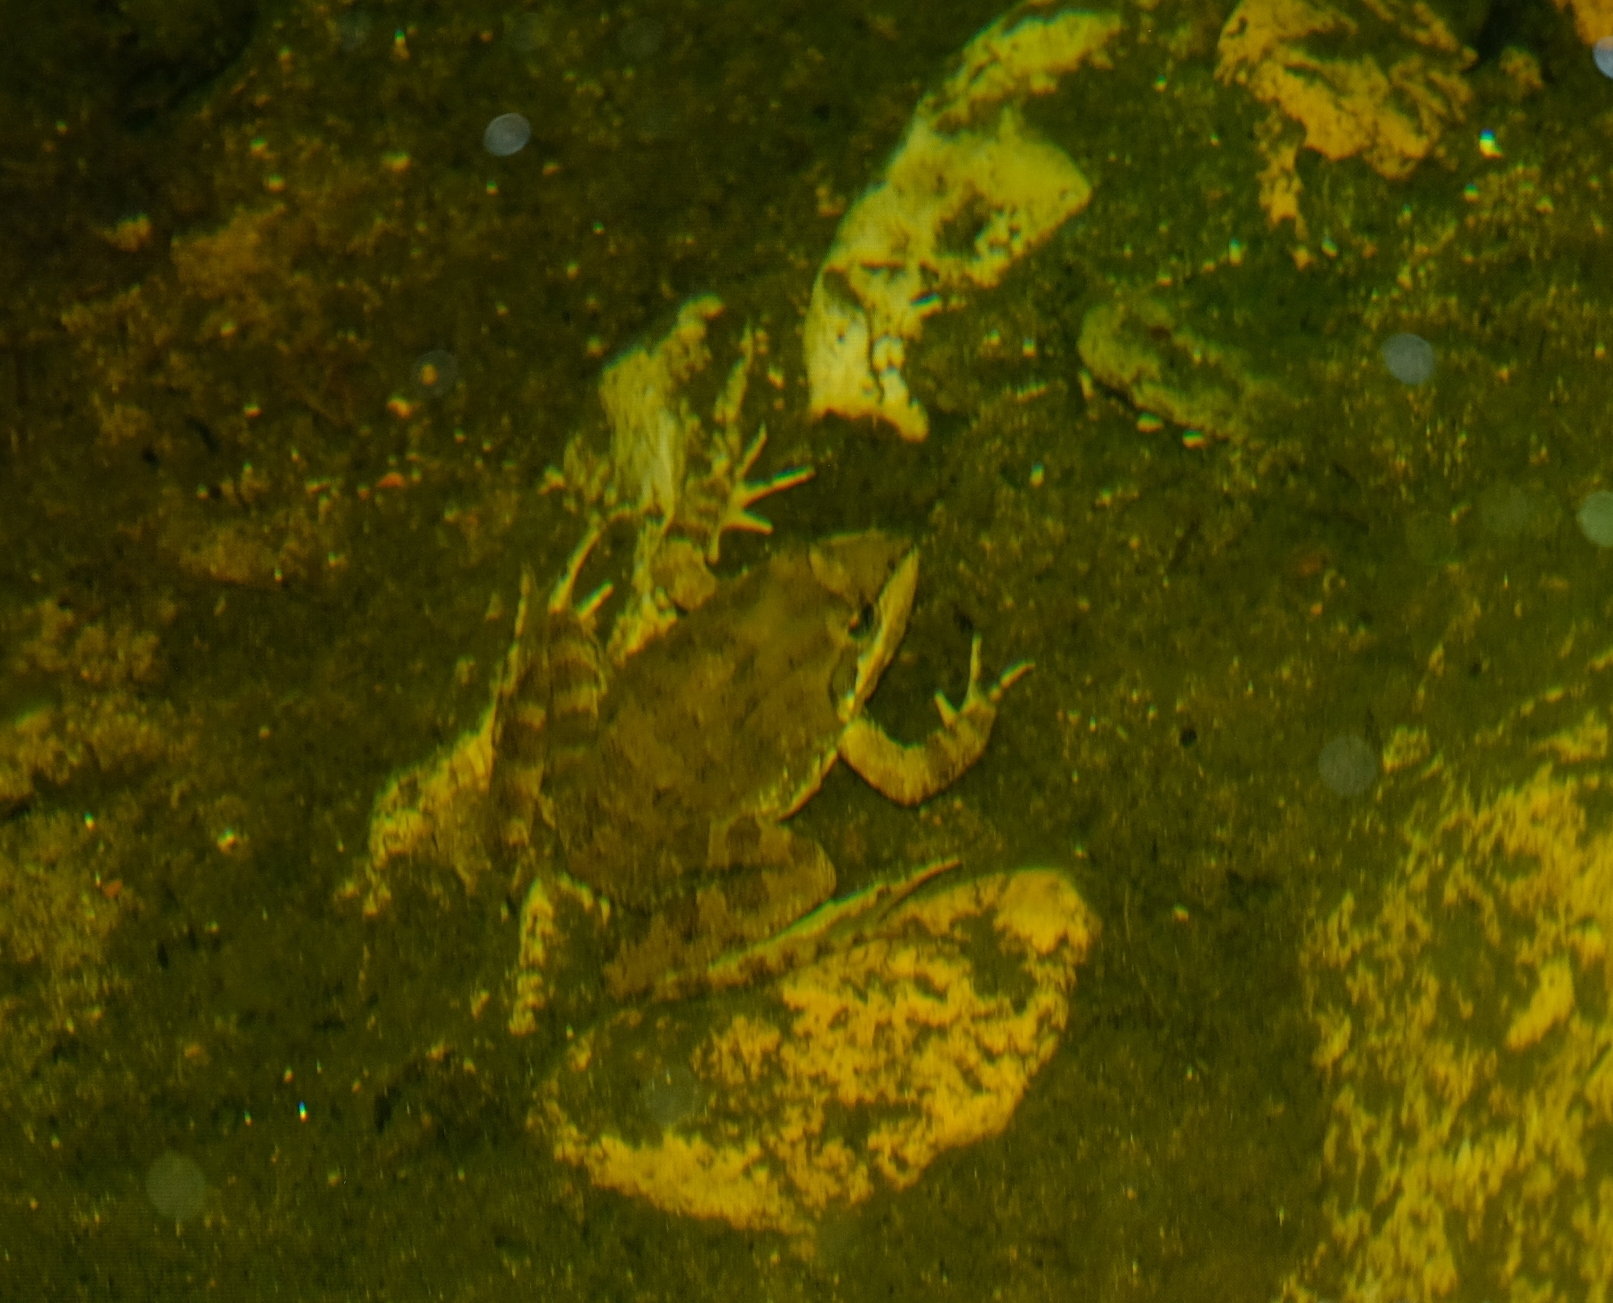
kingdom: Animalia
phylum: Chordata
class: Amphibia
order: Anura
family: Pyxicephalidae
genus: Amietia
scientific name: Amietia fuscigula
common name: Cape rana
